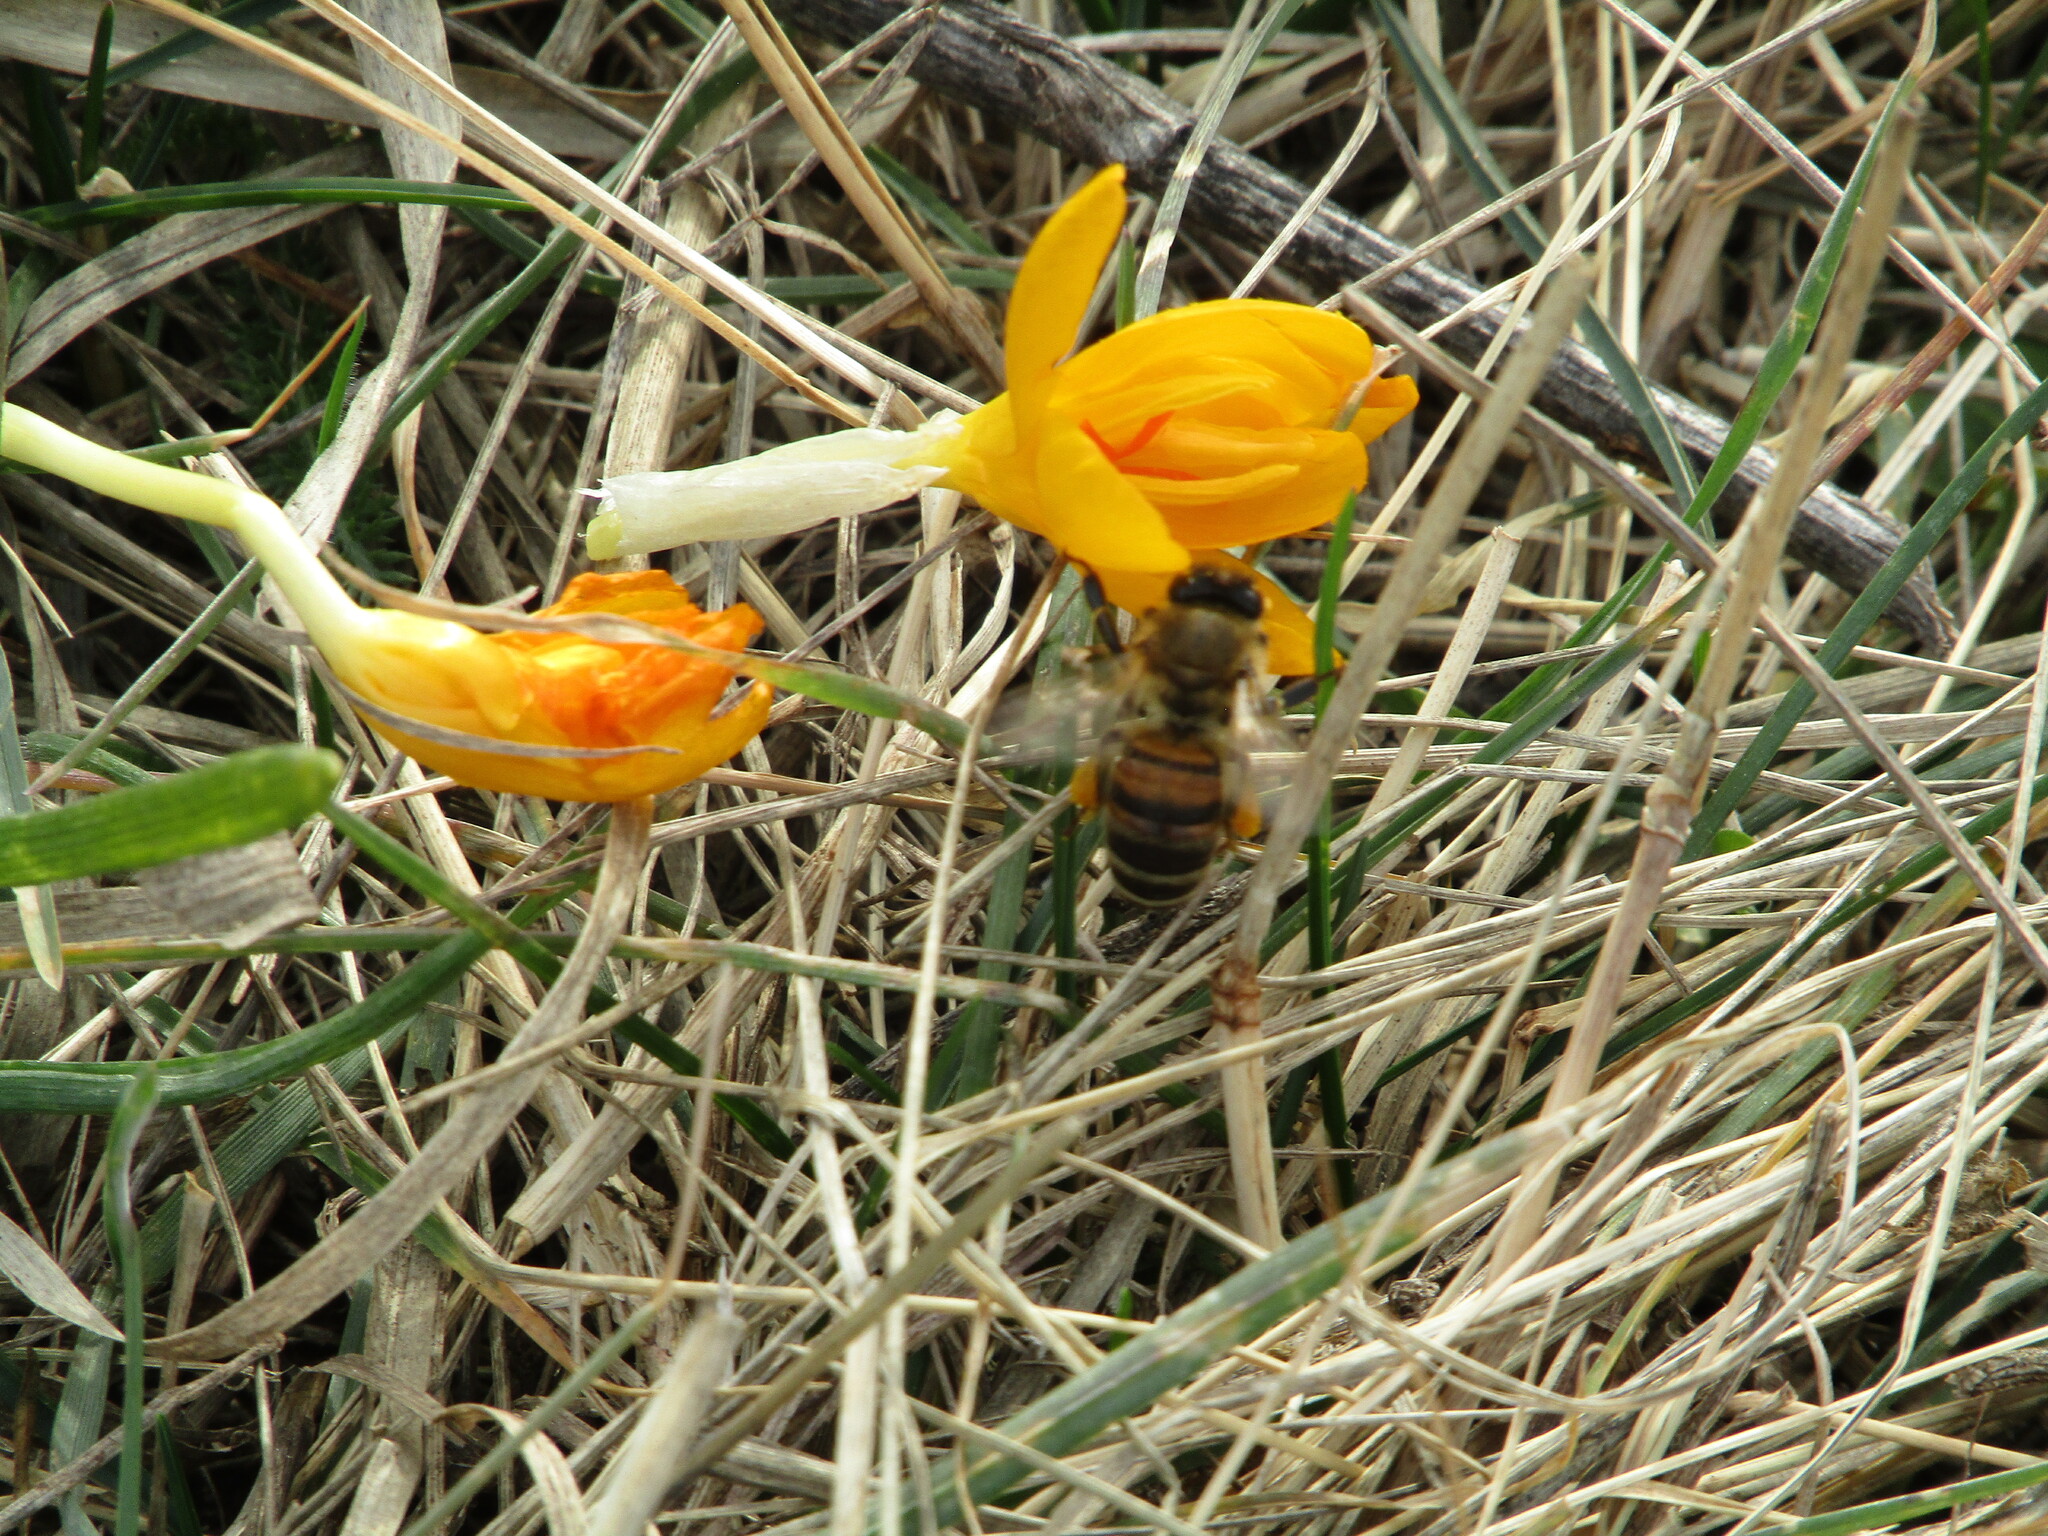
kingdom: Animalia
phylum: Arthropoda
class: Insecta
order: Hymenoptera
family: Apidae
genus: Apis
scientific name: Apis mellifera
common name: Honey bee
